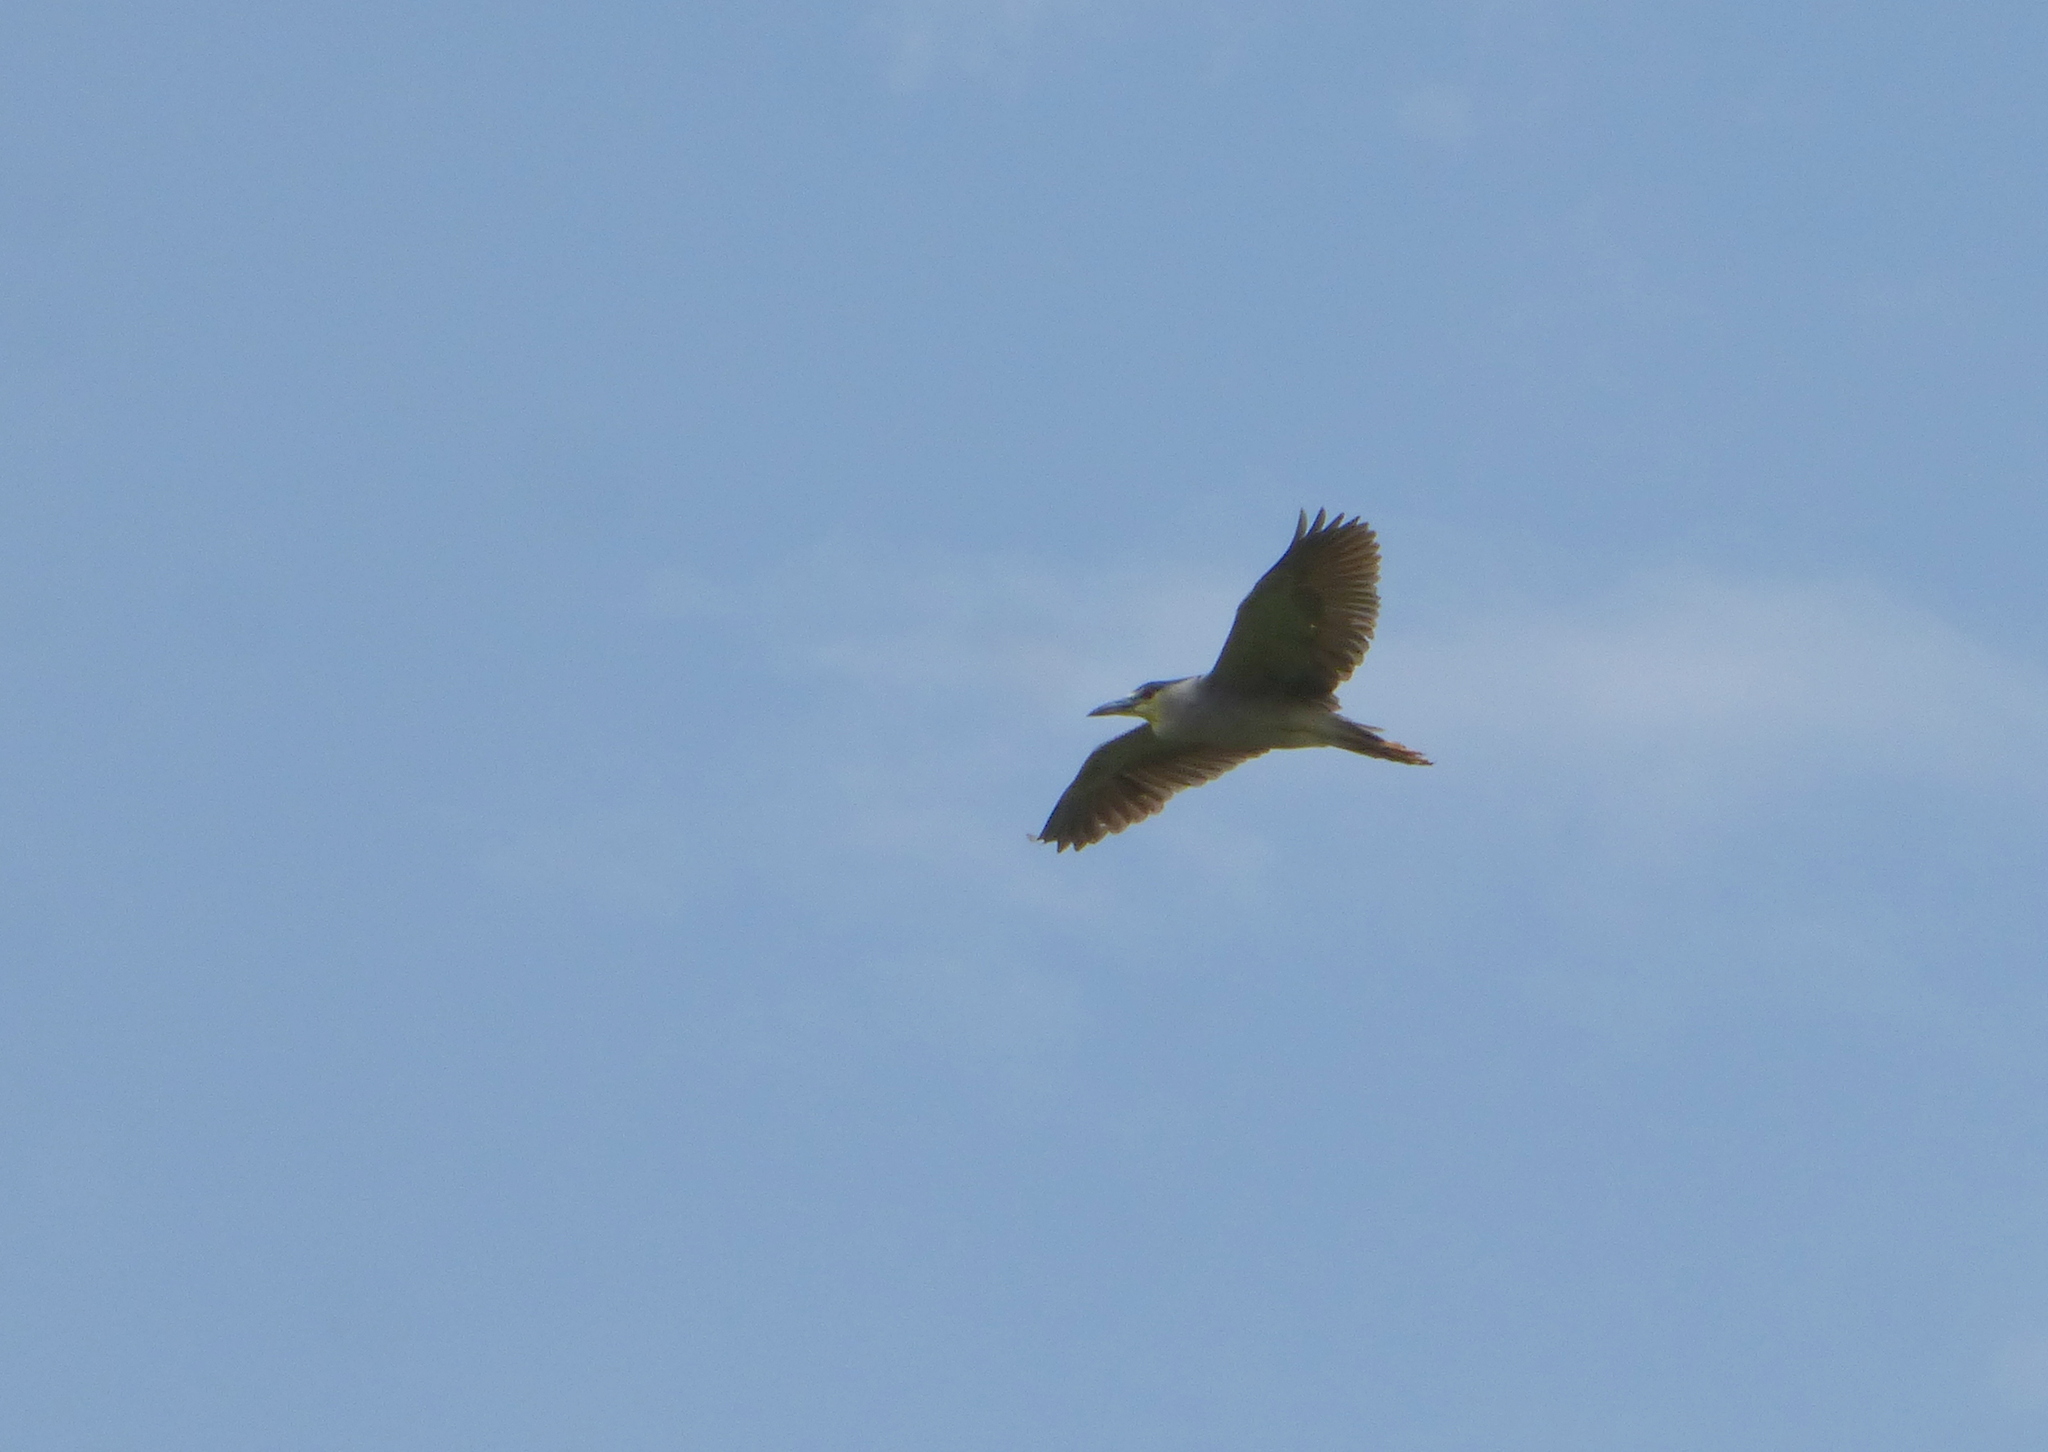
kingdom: Animalia
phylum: Chordata
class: Aves
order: Pelecaniformes
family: Ardeidae
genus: Nycticorax
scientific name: Nycticorax nycticorax
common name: Black-crowned night heron
